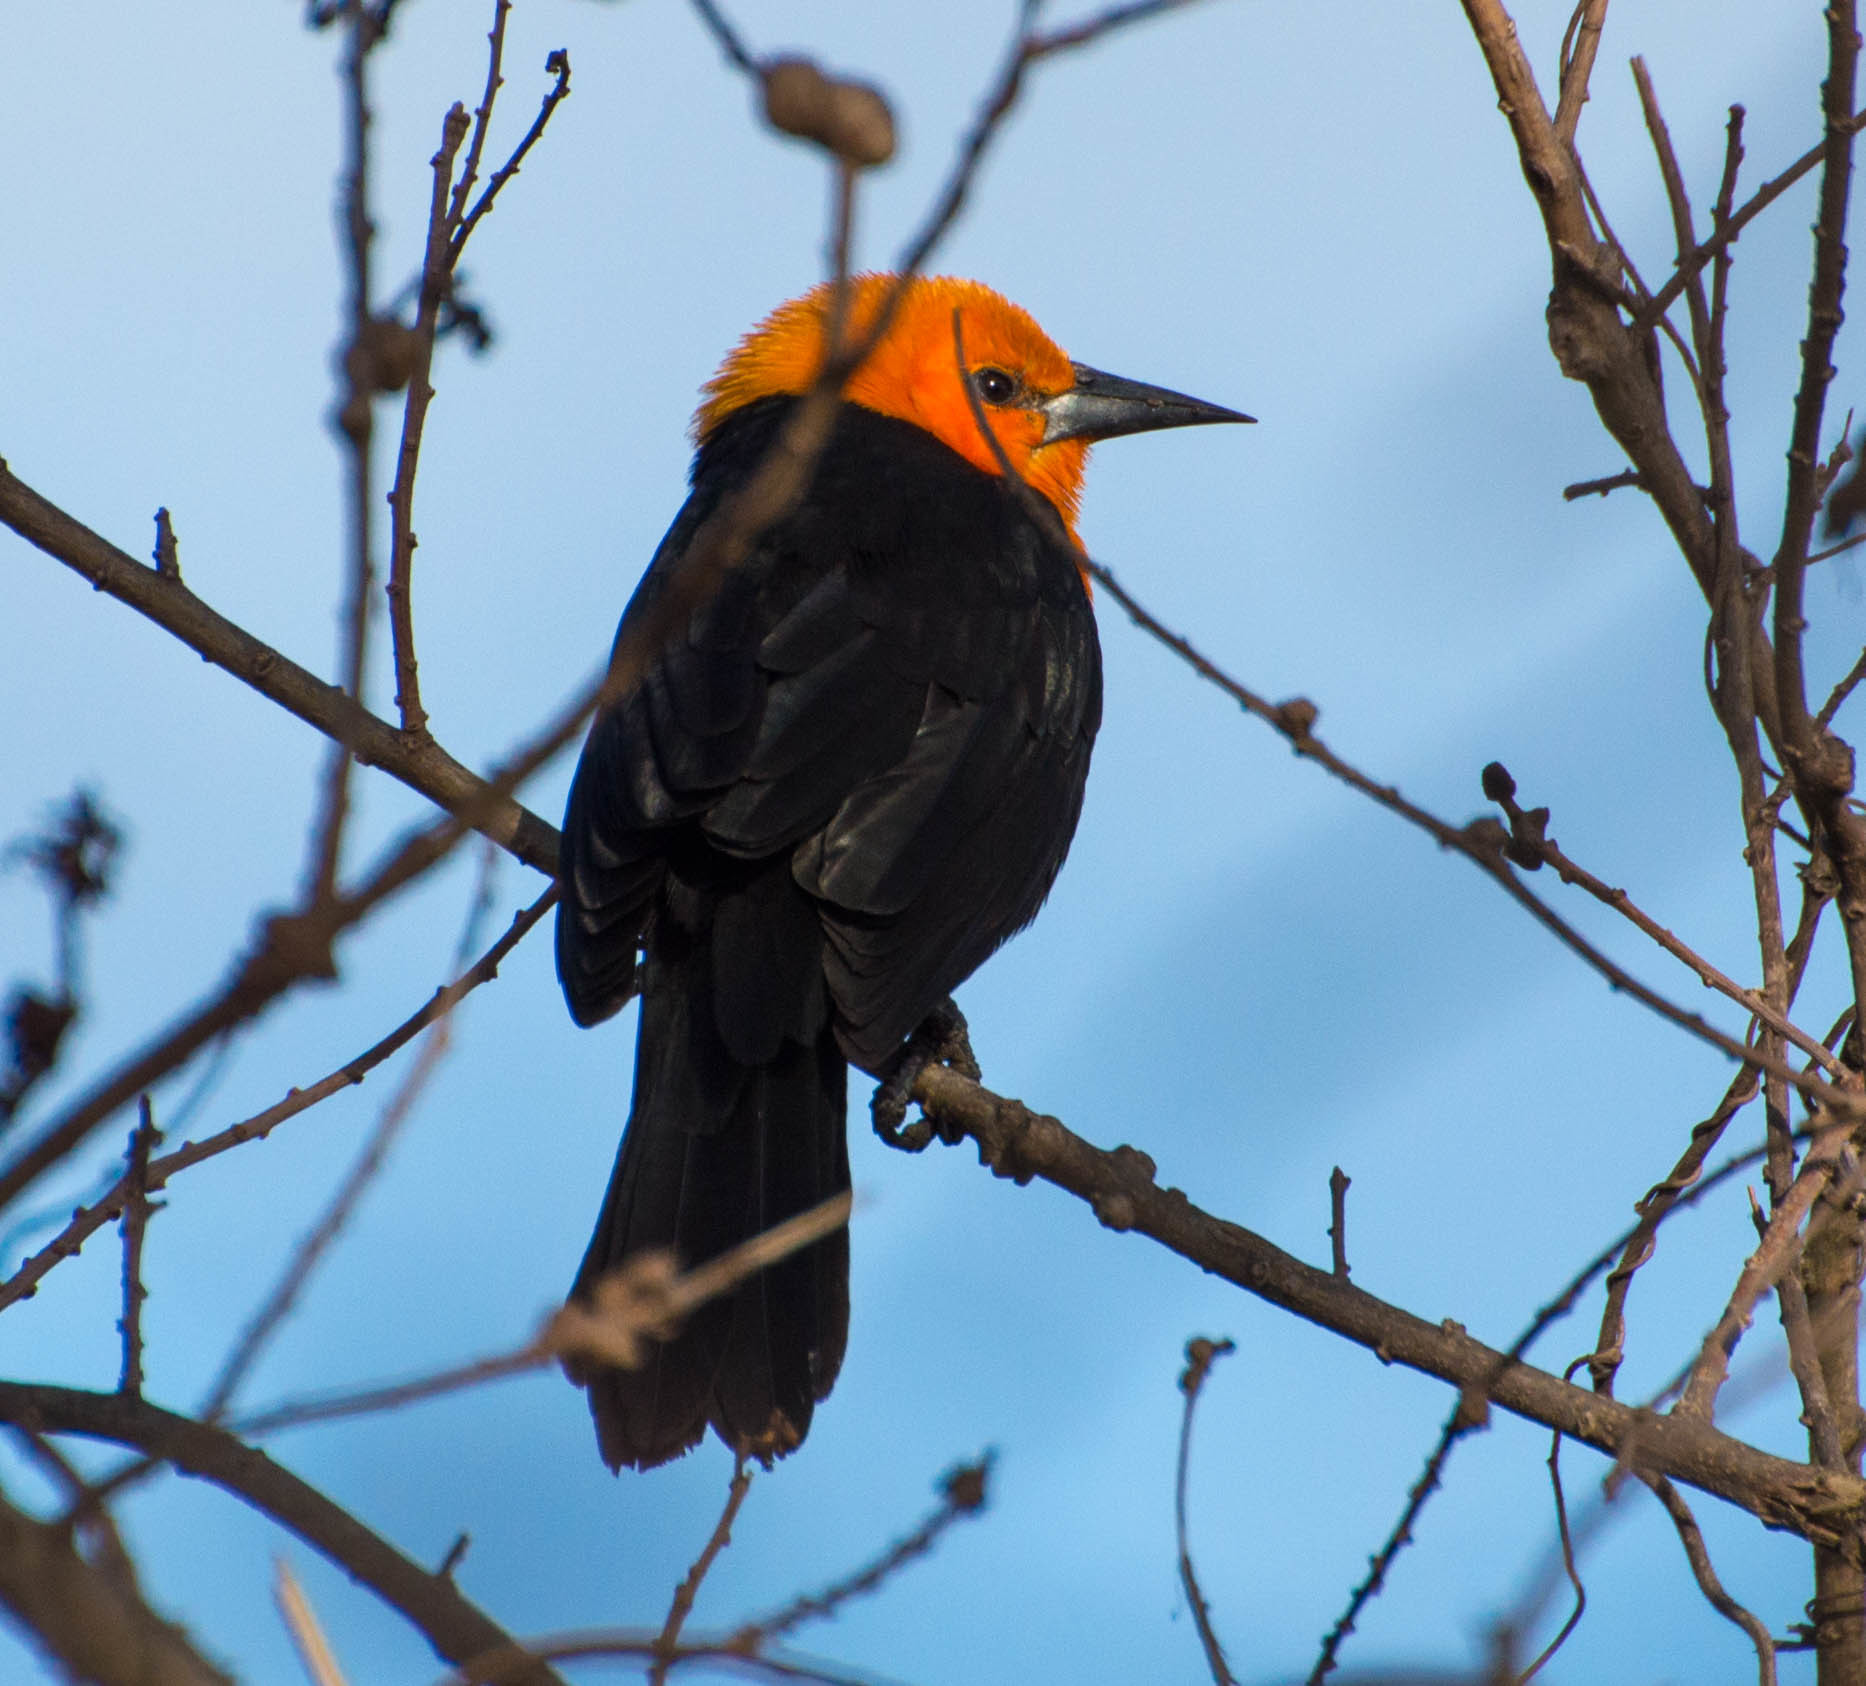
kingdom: Animalia
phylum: Chordata
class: Aves
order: Passeriformes
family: Icteridae
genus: Amblyramphus
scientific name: Amblyramphus holosericeus
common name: Scarlet-headed blackbird
